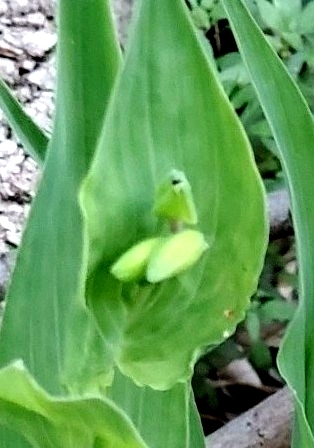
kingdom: Plantae
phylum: Tracheophyta
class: Liliopsida
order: Commelinales
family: Commelinaceae
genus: Tinantia
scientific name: Tinantia anomala
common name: False dayflower
